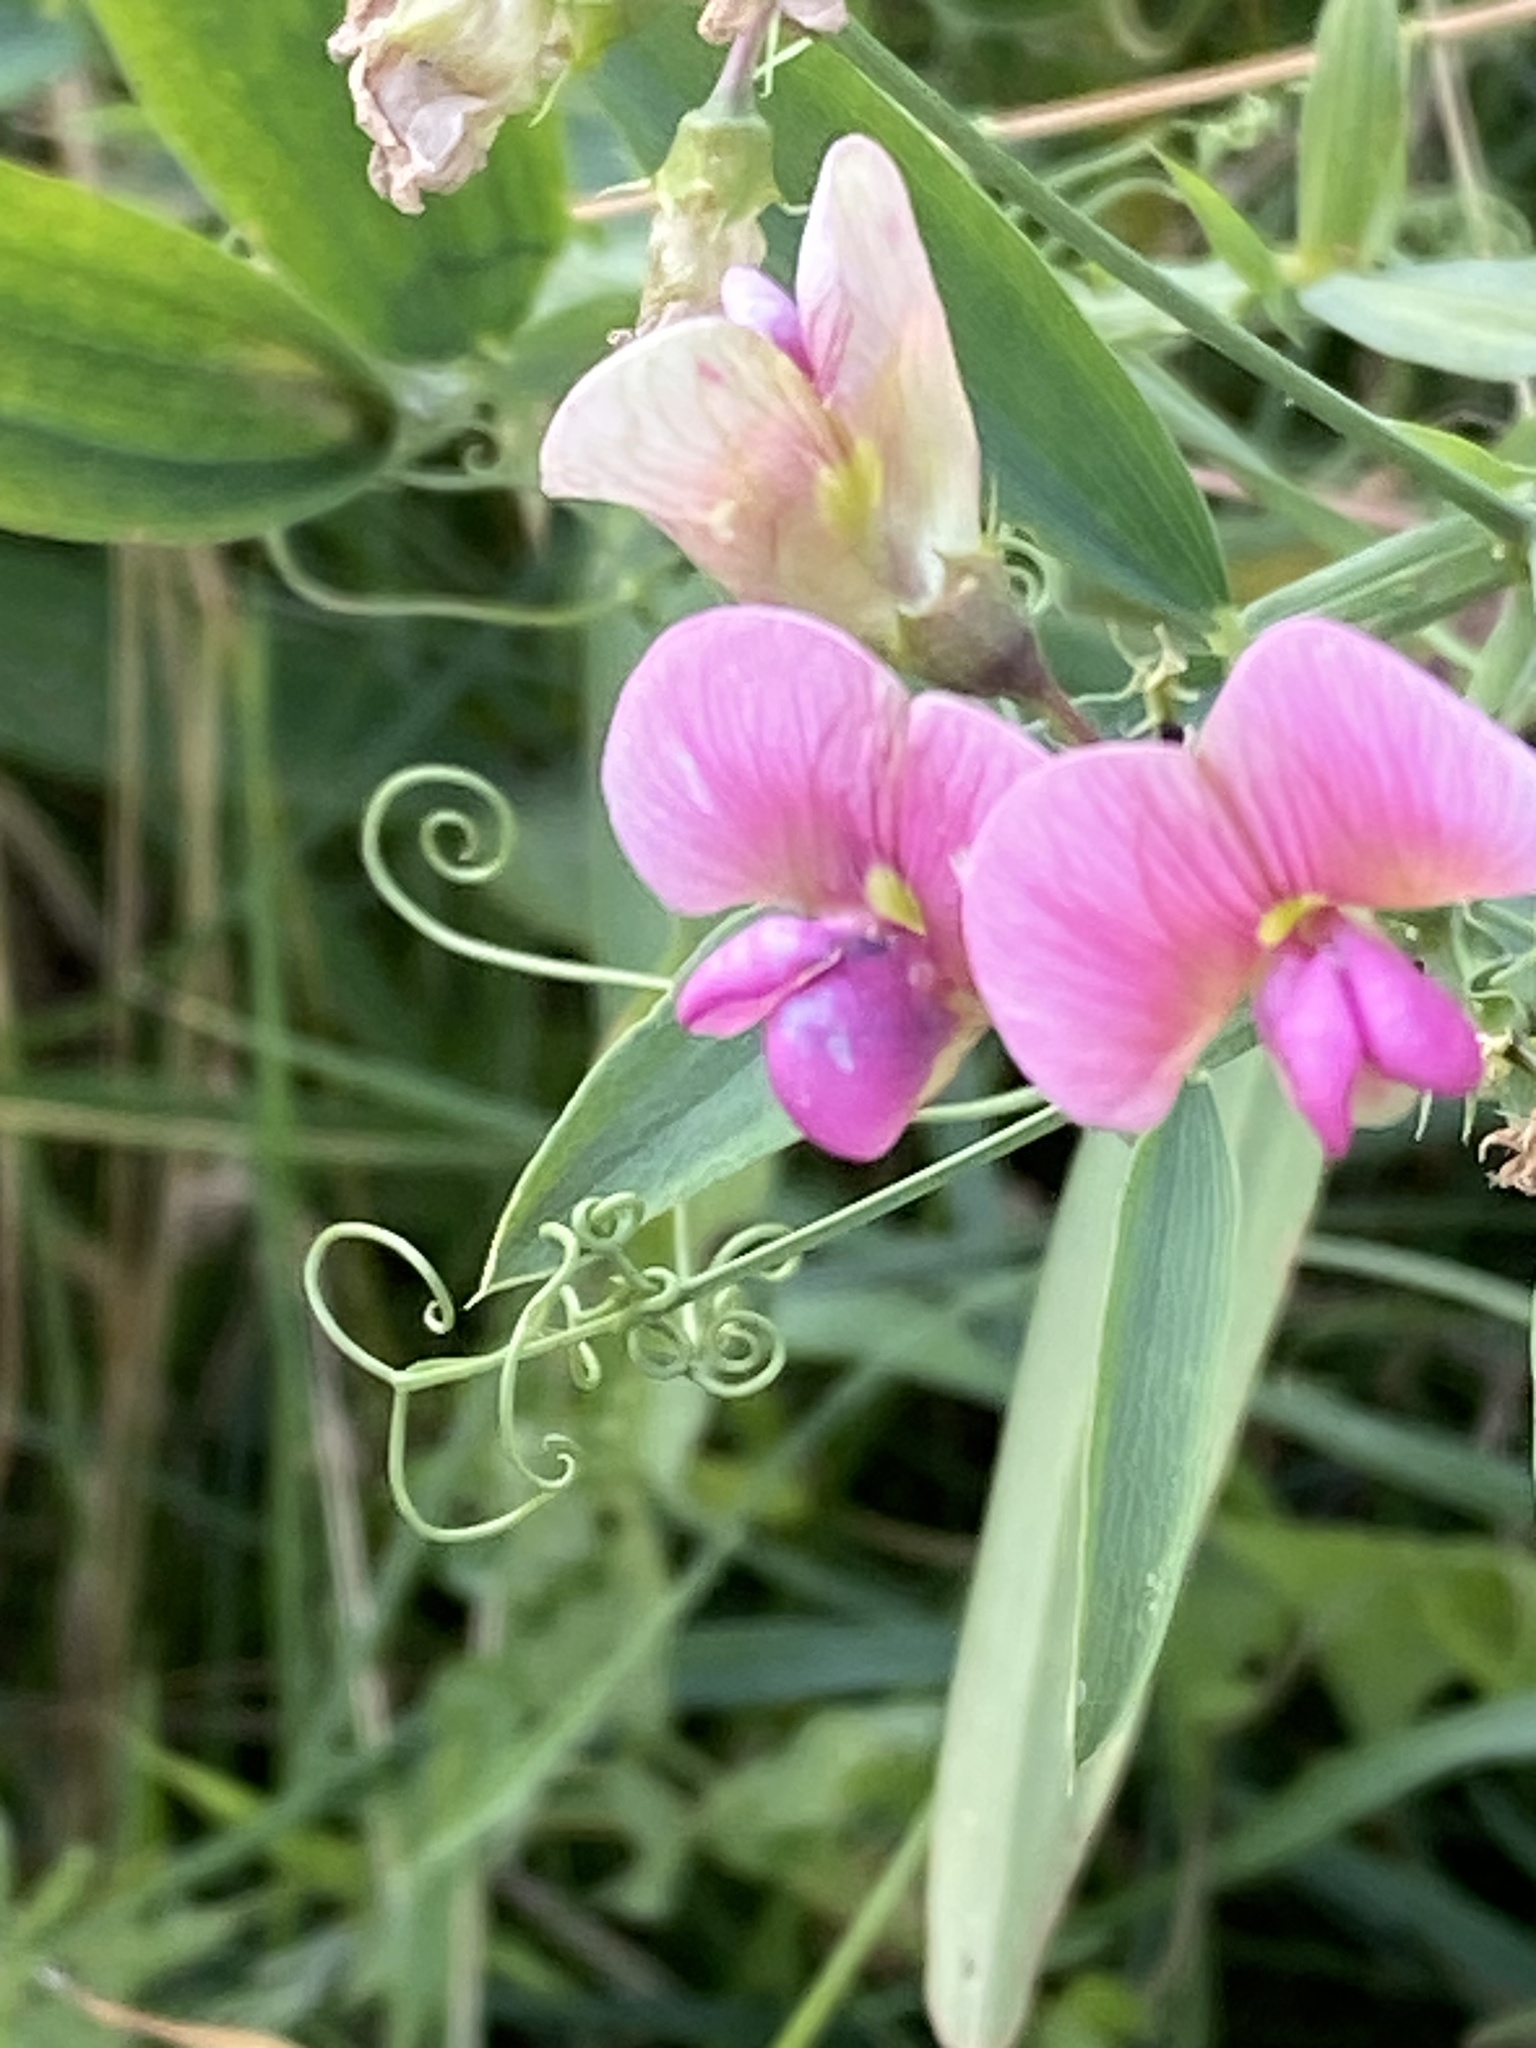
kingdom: Plantae
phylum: Tracheophyta
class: Magnoliopsida
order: Fabales
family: Fabaceae
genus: Lathyrus
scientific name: Lathyrus sylvestris
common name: Flat pea
